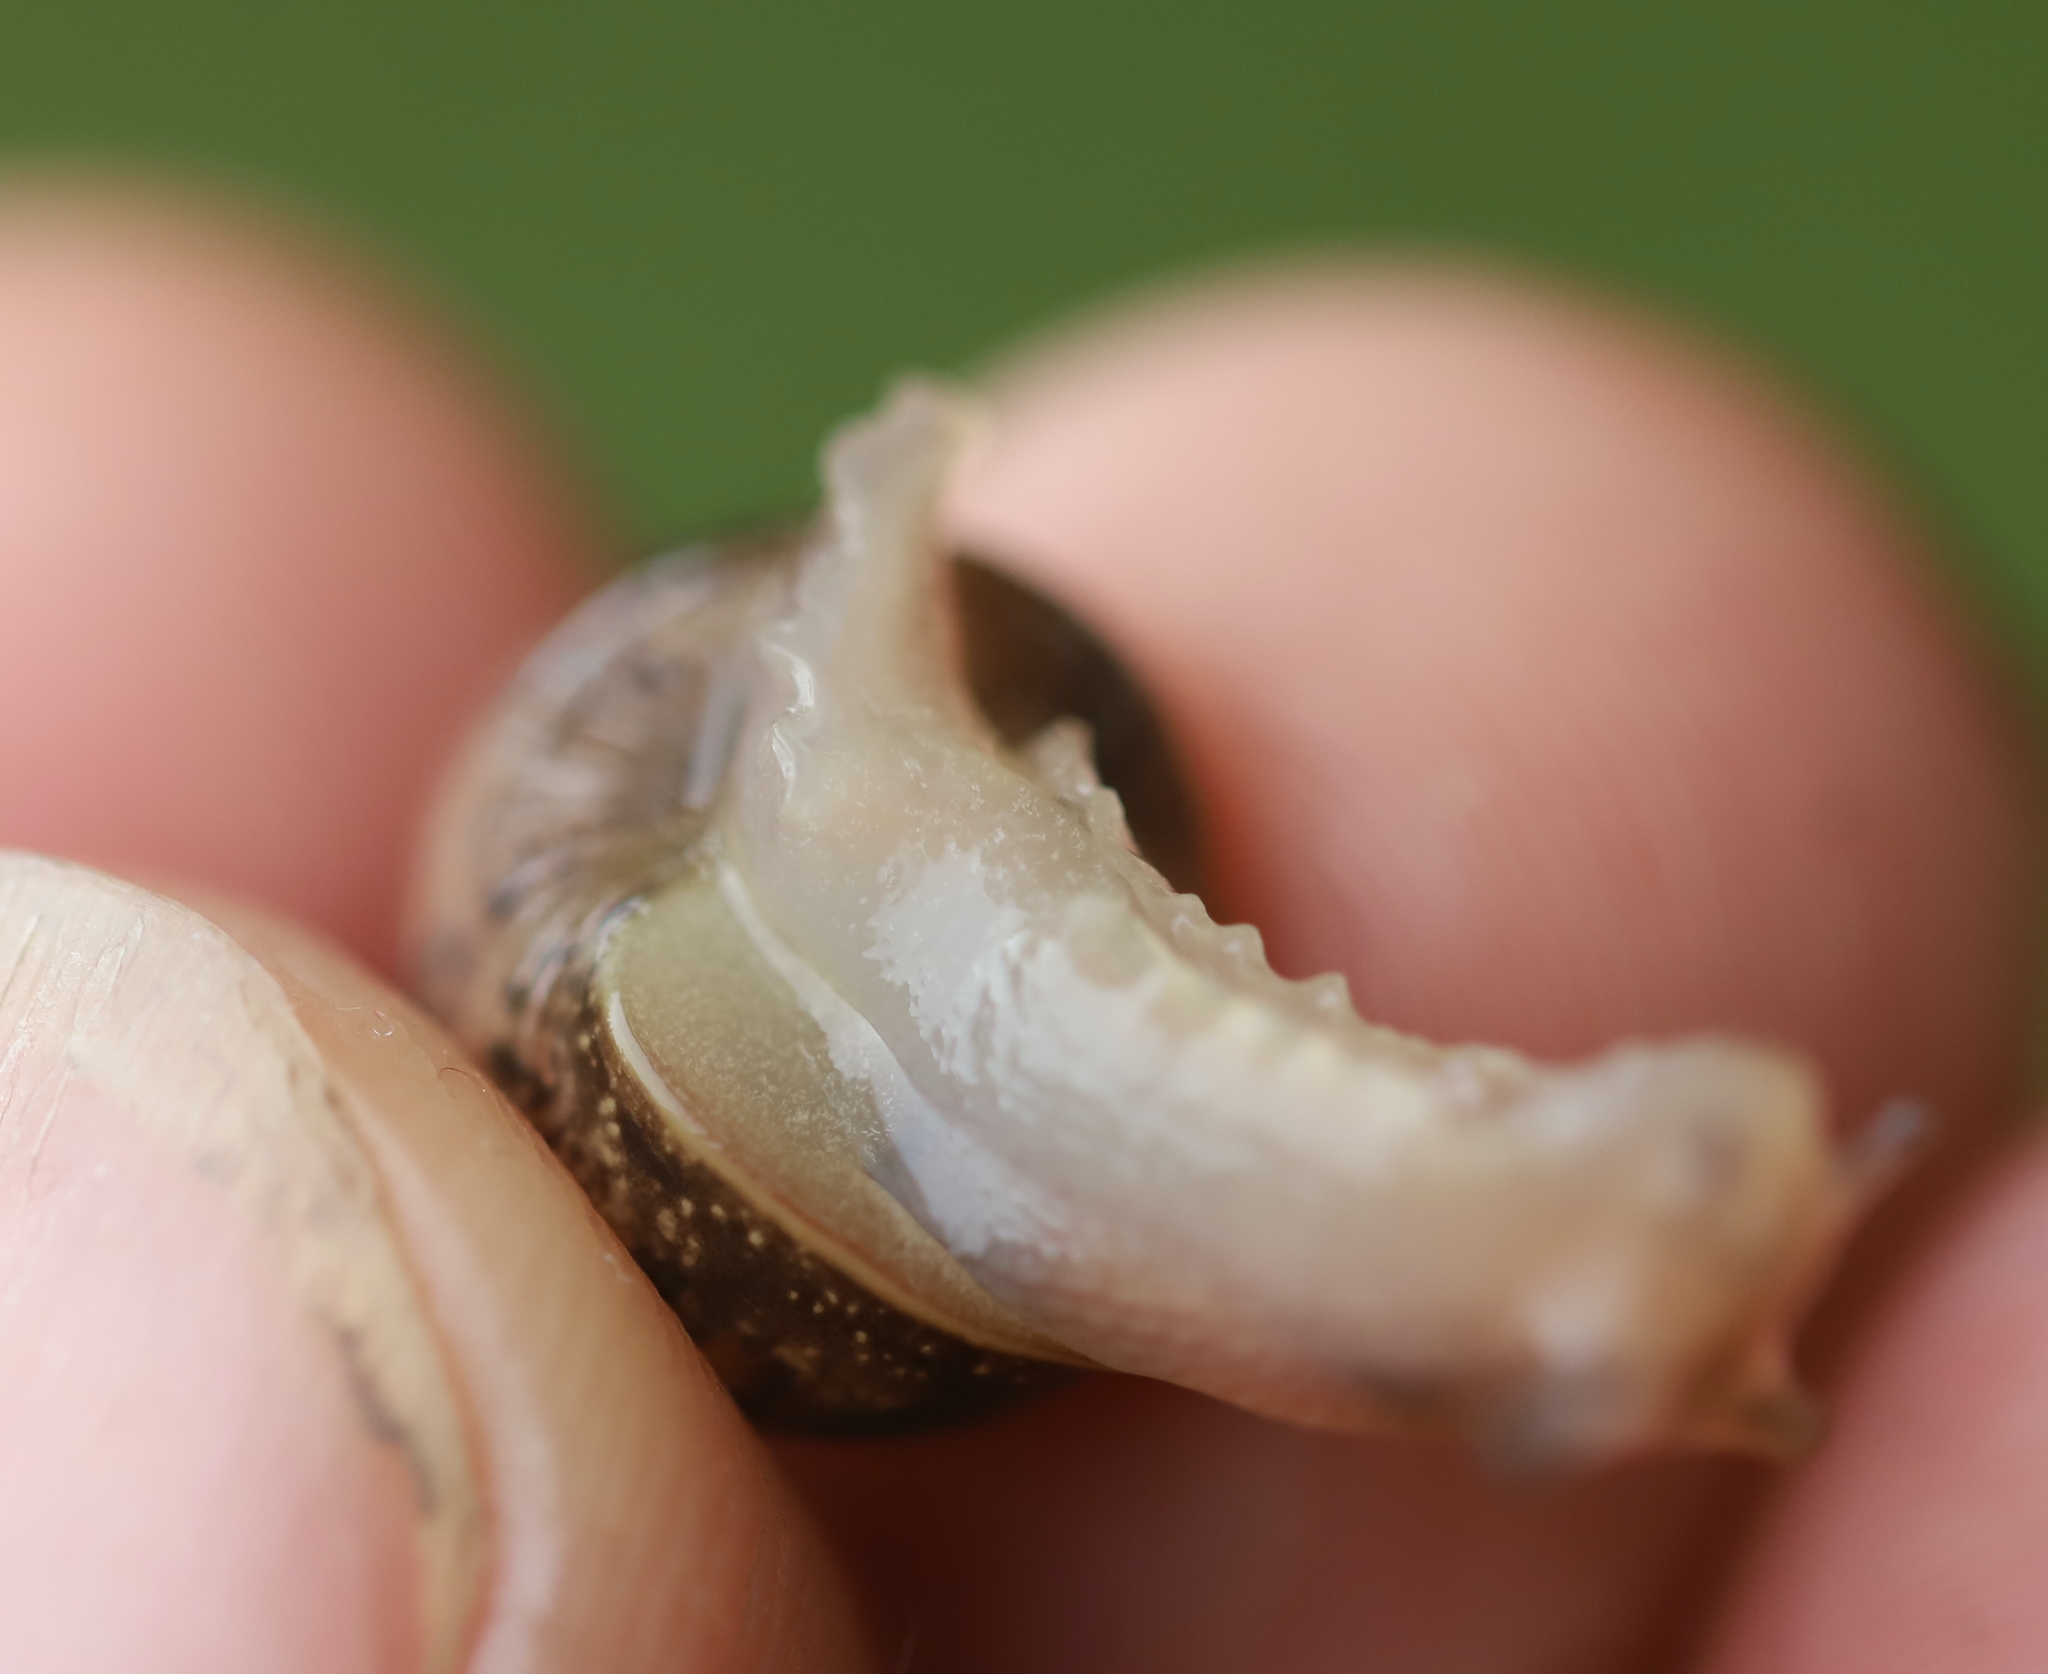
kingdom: Animalia
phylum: Mollusca
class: Gastropoda
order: Stylommatophora
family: Helicidae
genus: Cornu
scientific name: Cornu aspersum
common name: Brown garden snail
